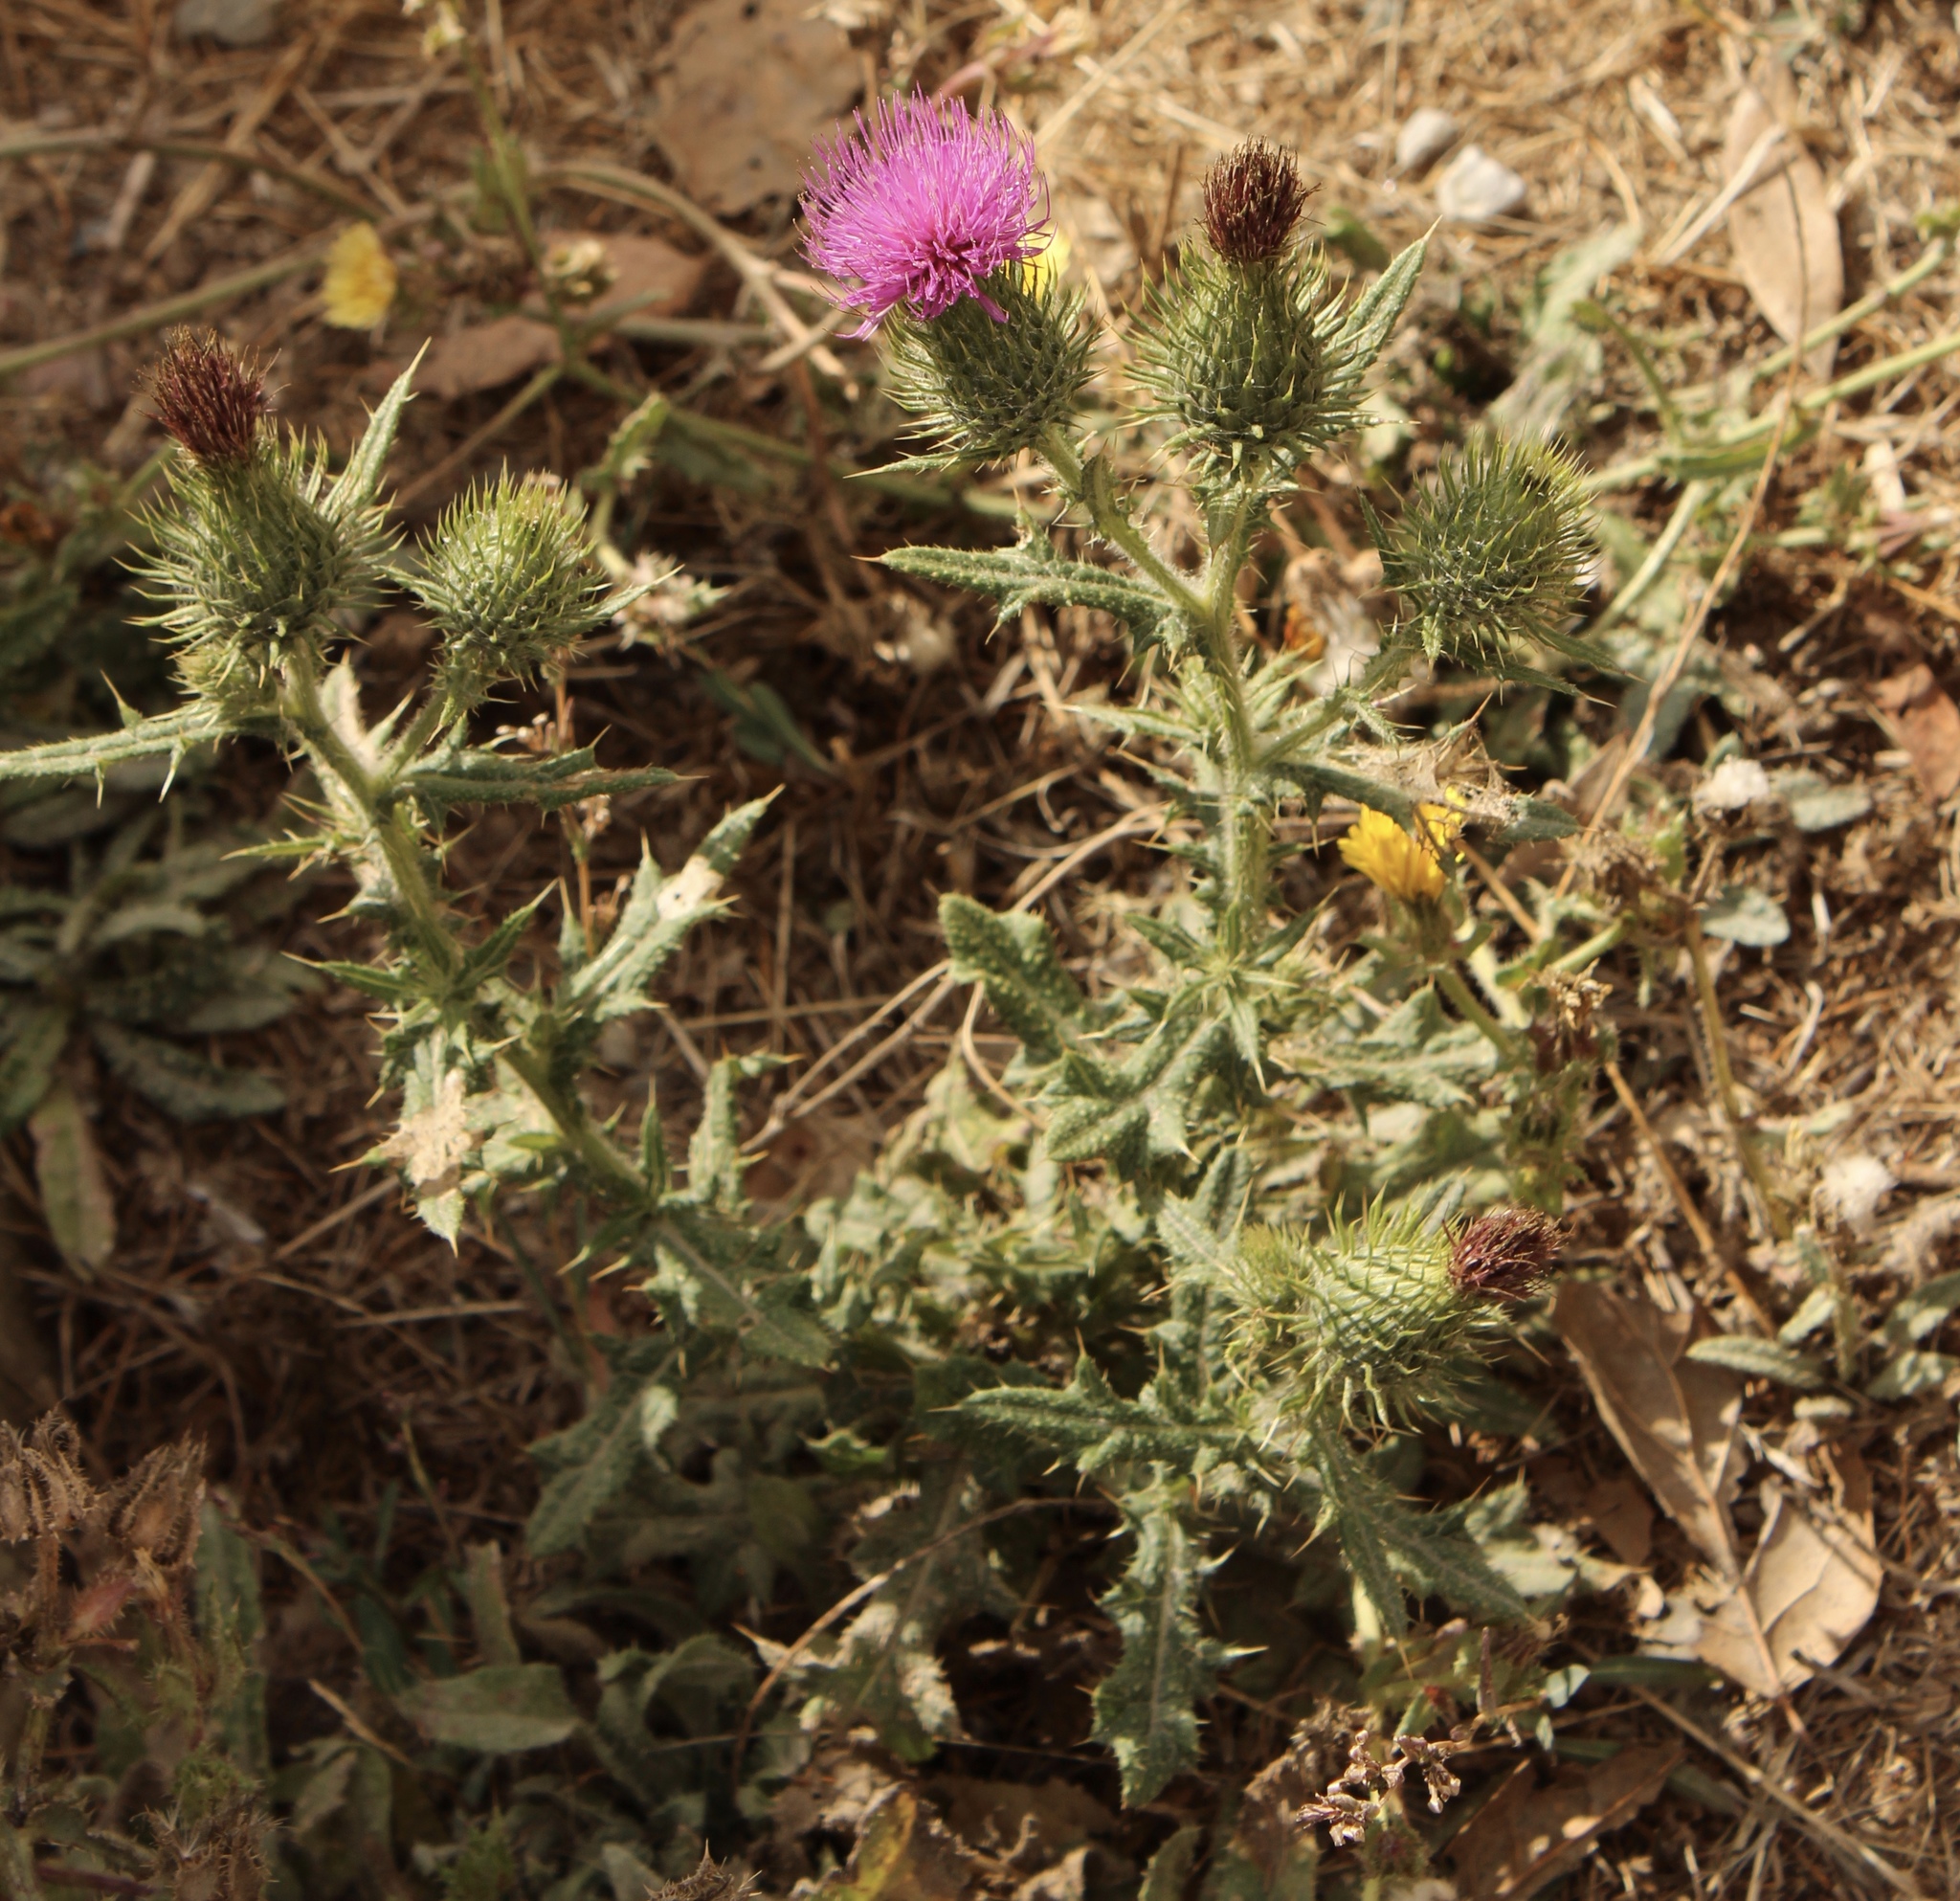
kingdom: Plantae
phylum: Tracheophyta
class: Magnoliopsida
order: Asterales
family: Asteraceae
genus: Cirsium
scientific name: Cirsium vulgare
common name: Bull thistle
